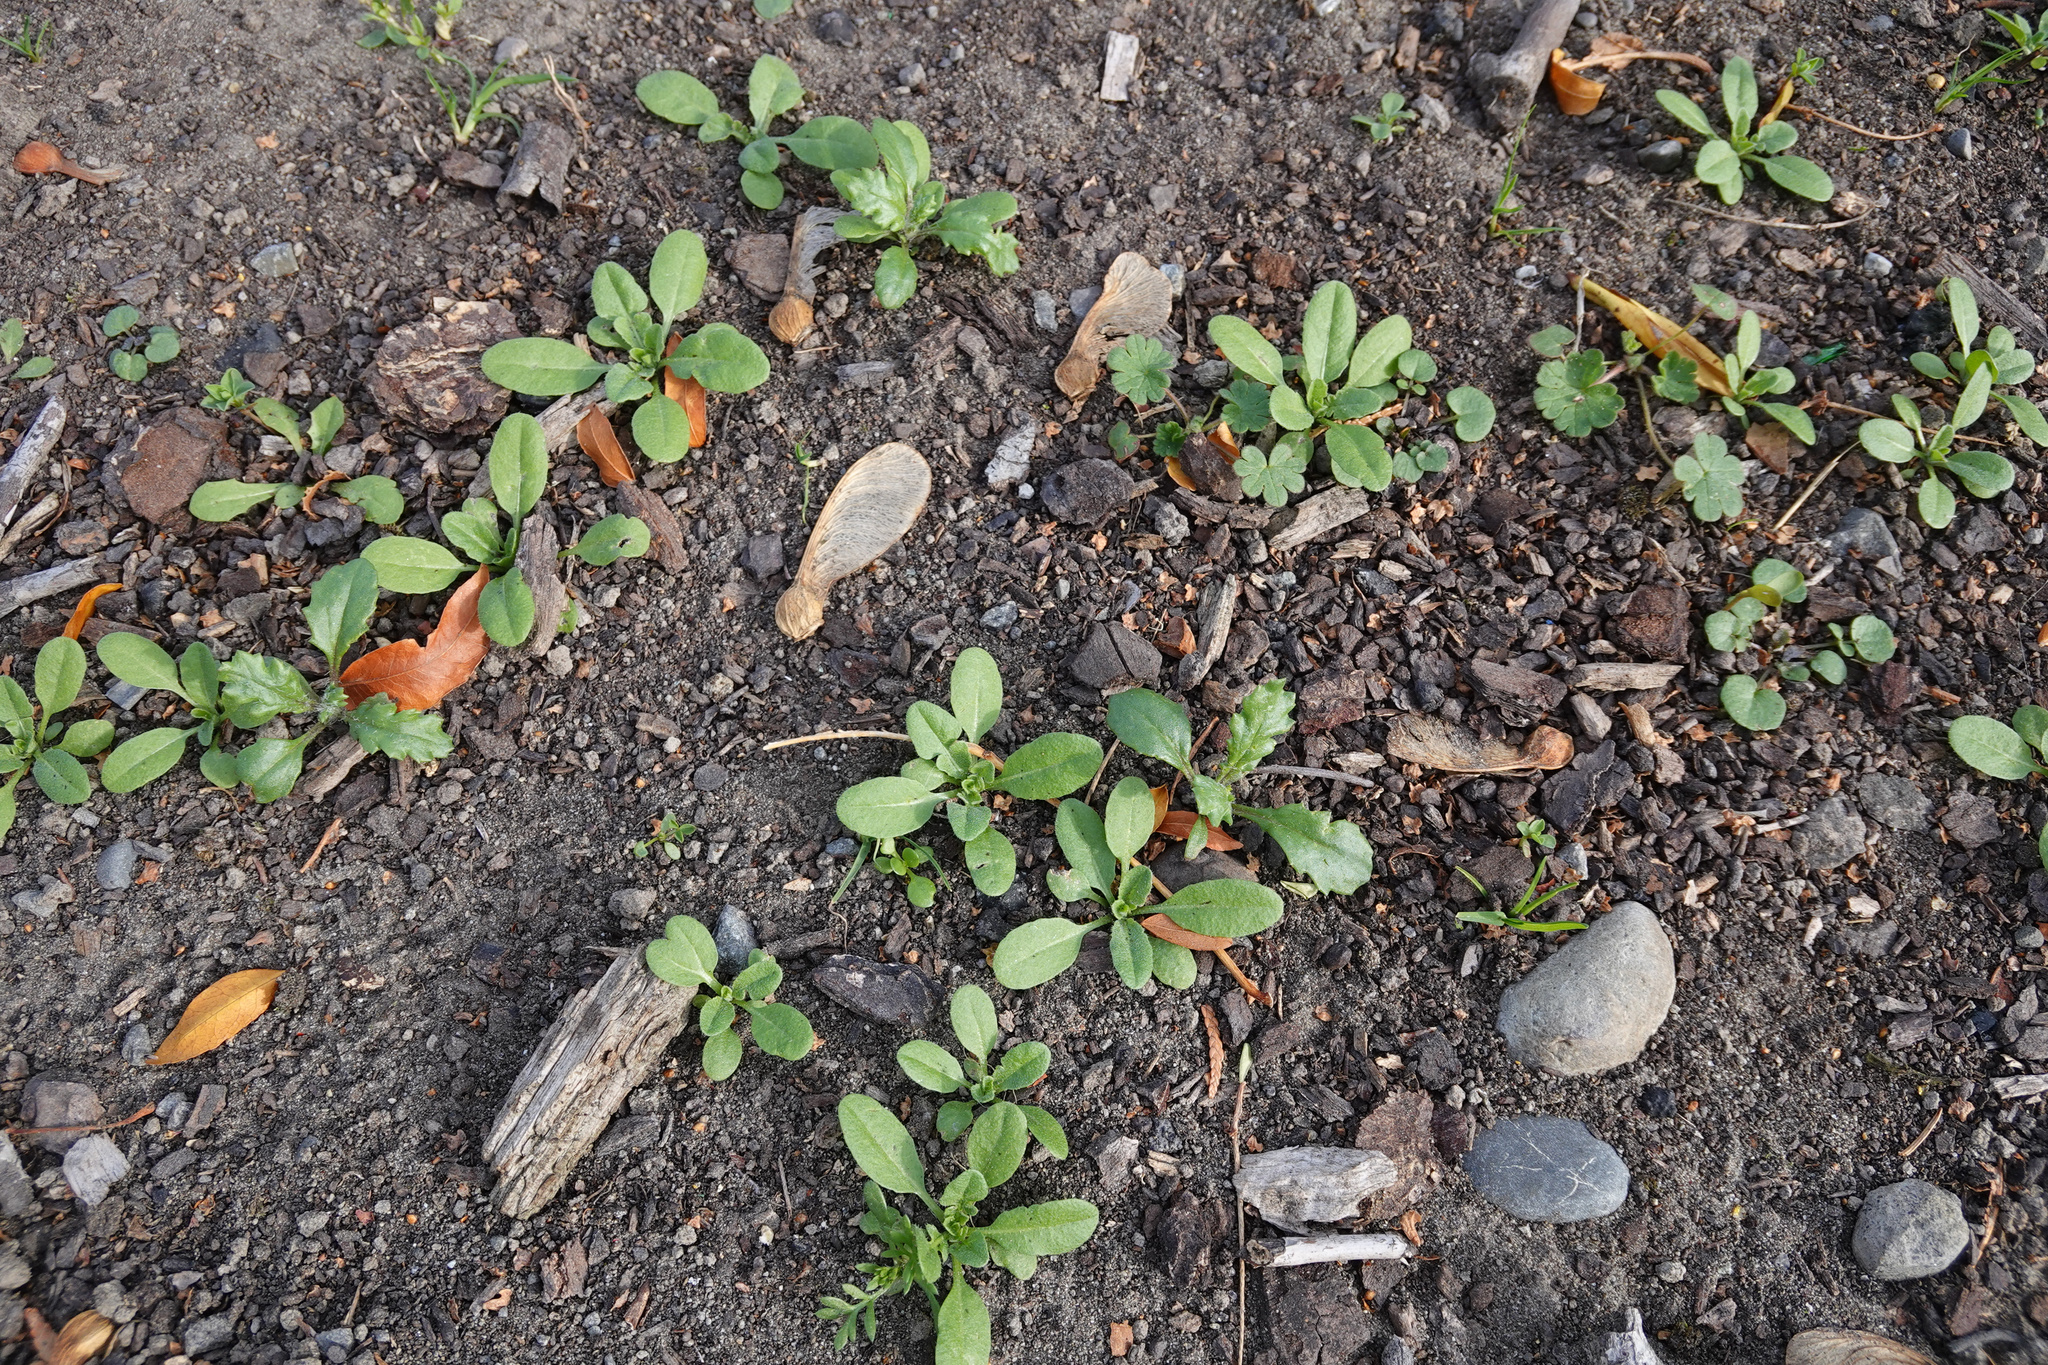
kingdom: Plantae
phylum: Tracheophyta
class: Magnoliopsida
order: Asterales
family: Asteraceae
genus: Senecio
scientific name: Senecio vulgaris
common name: Old-man-in-the-spring
